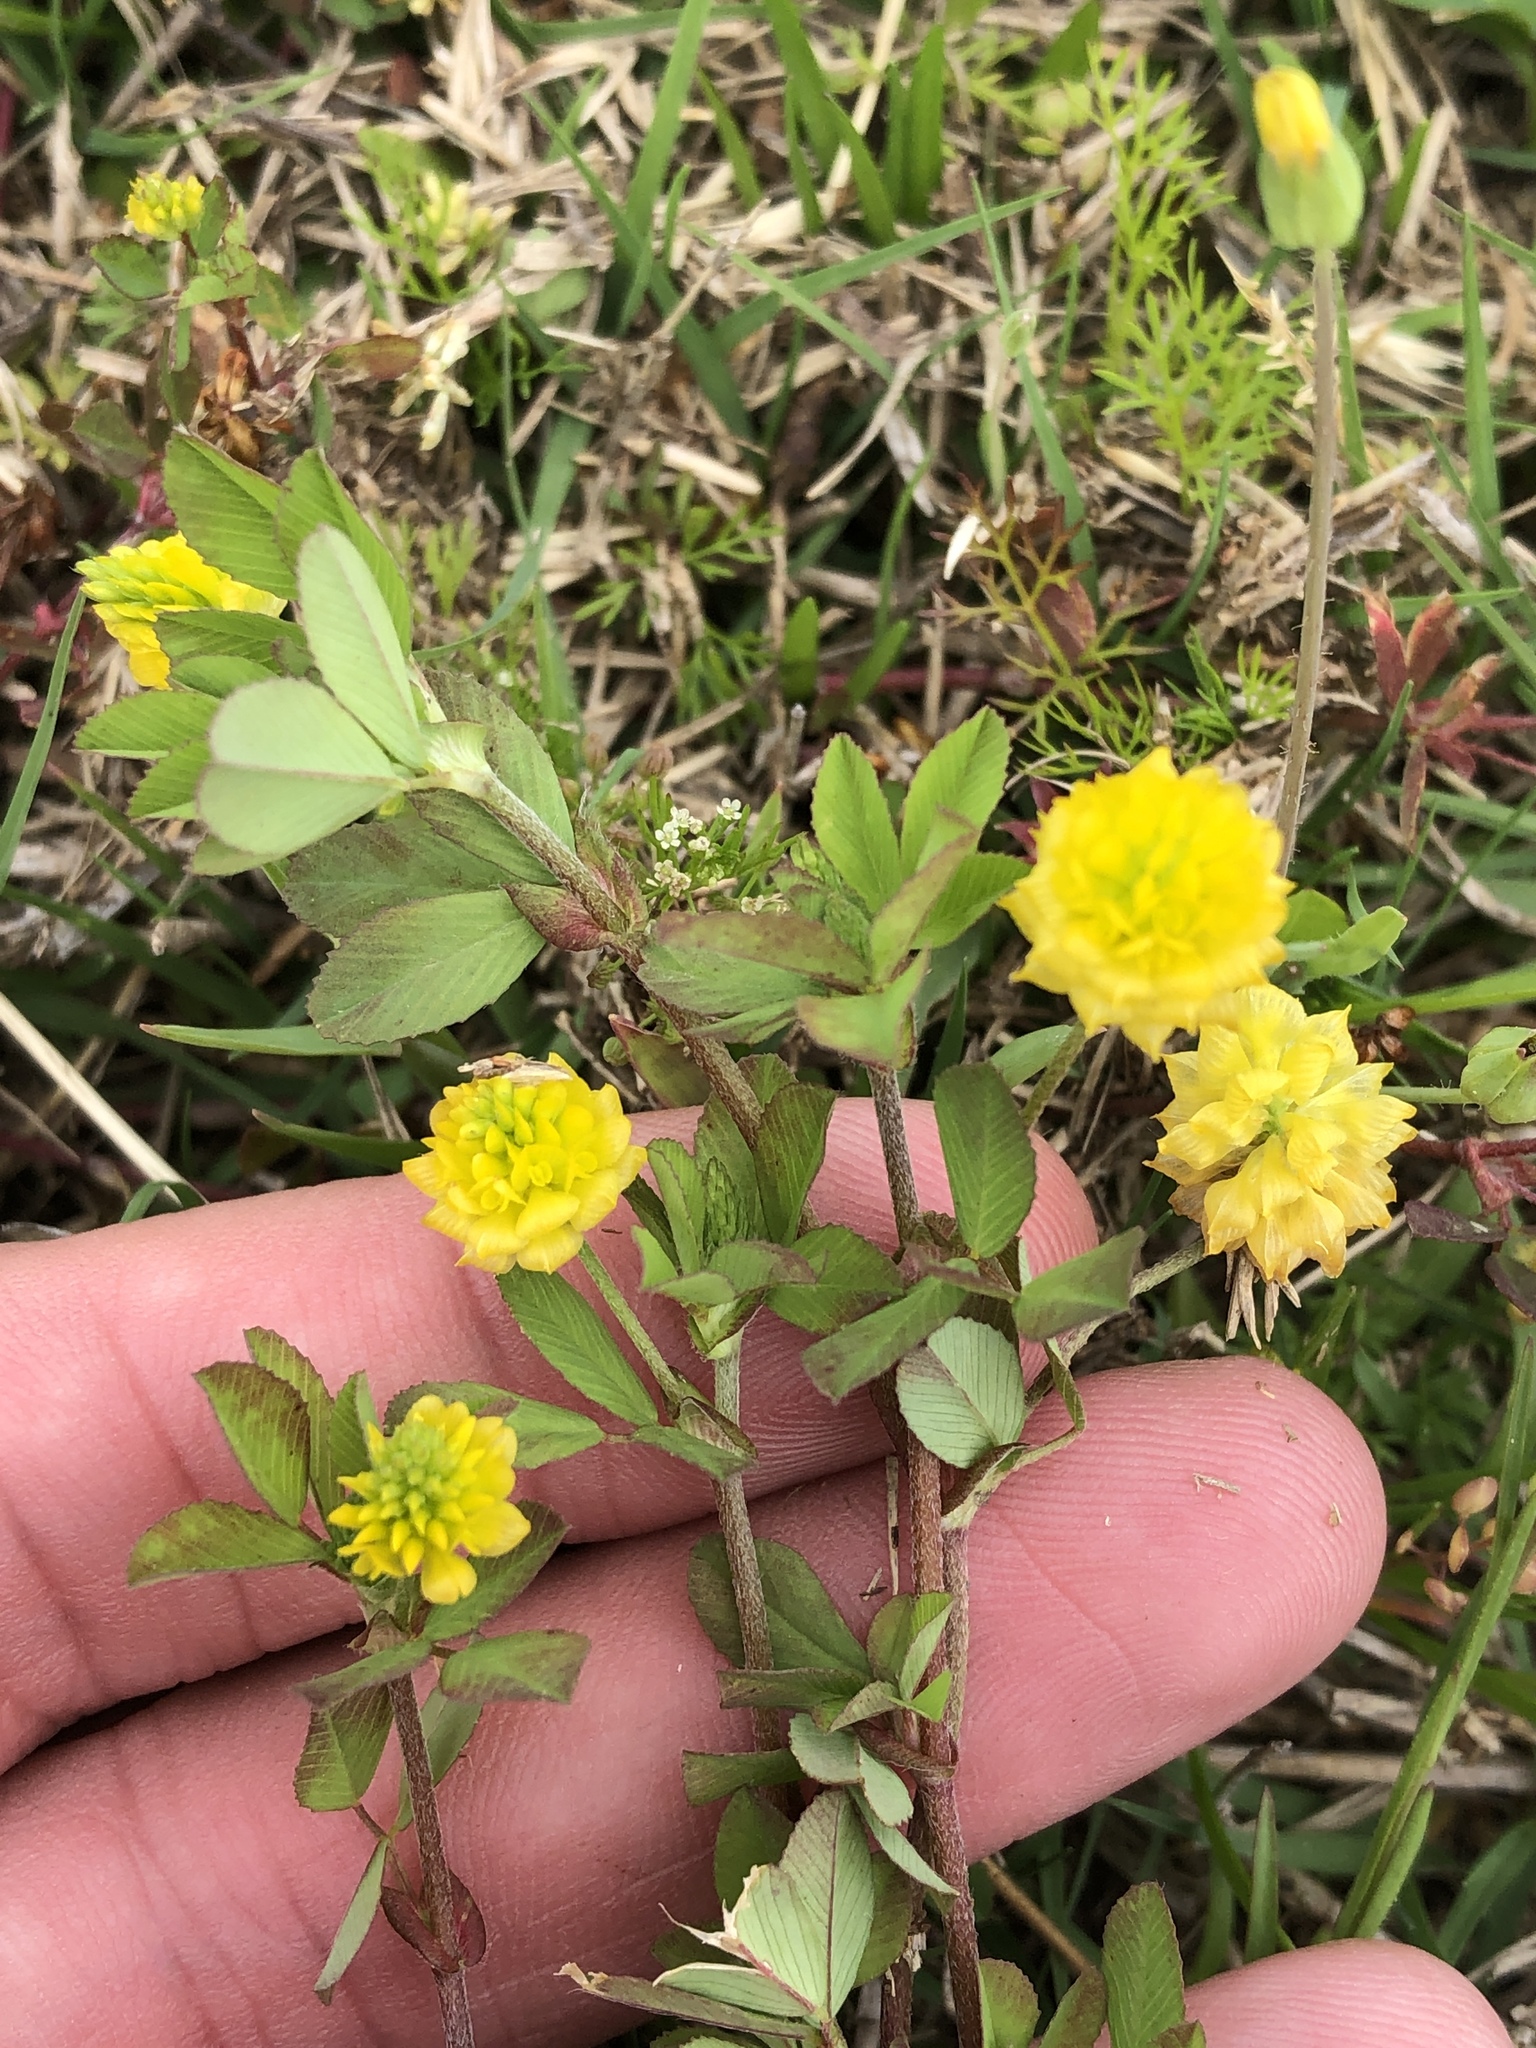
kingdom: Plantae
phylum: Tracheophyta
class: Magnoliopsida
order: Fabales
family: Fabaceae
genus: Trifolium
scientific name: Trifolium campestre
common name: Field clover
